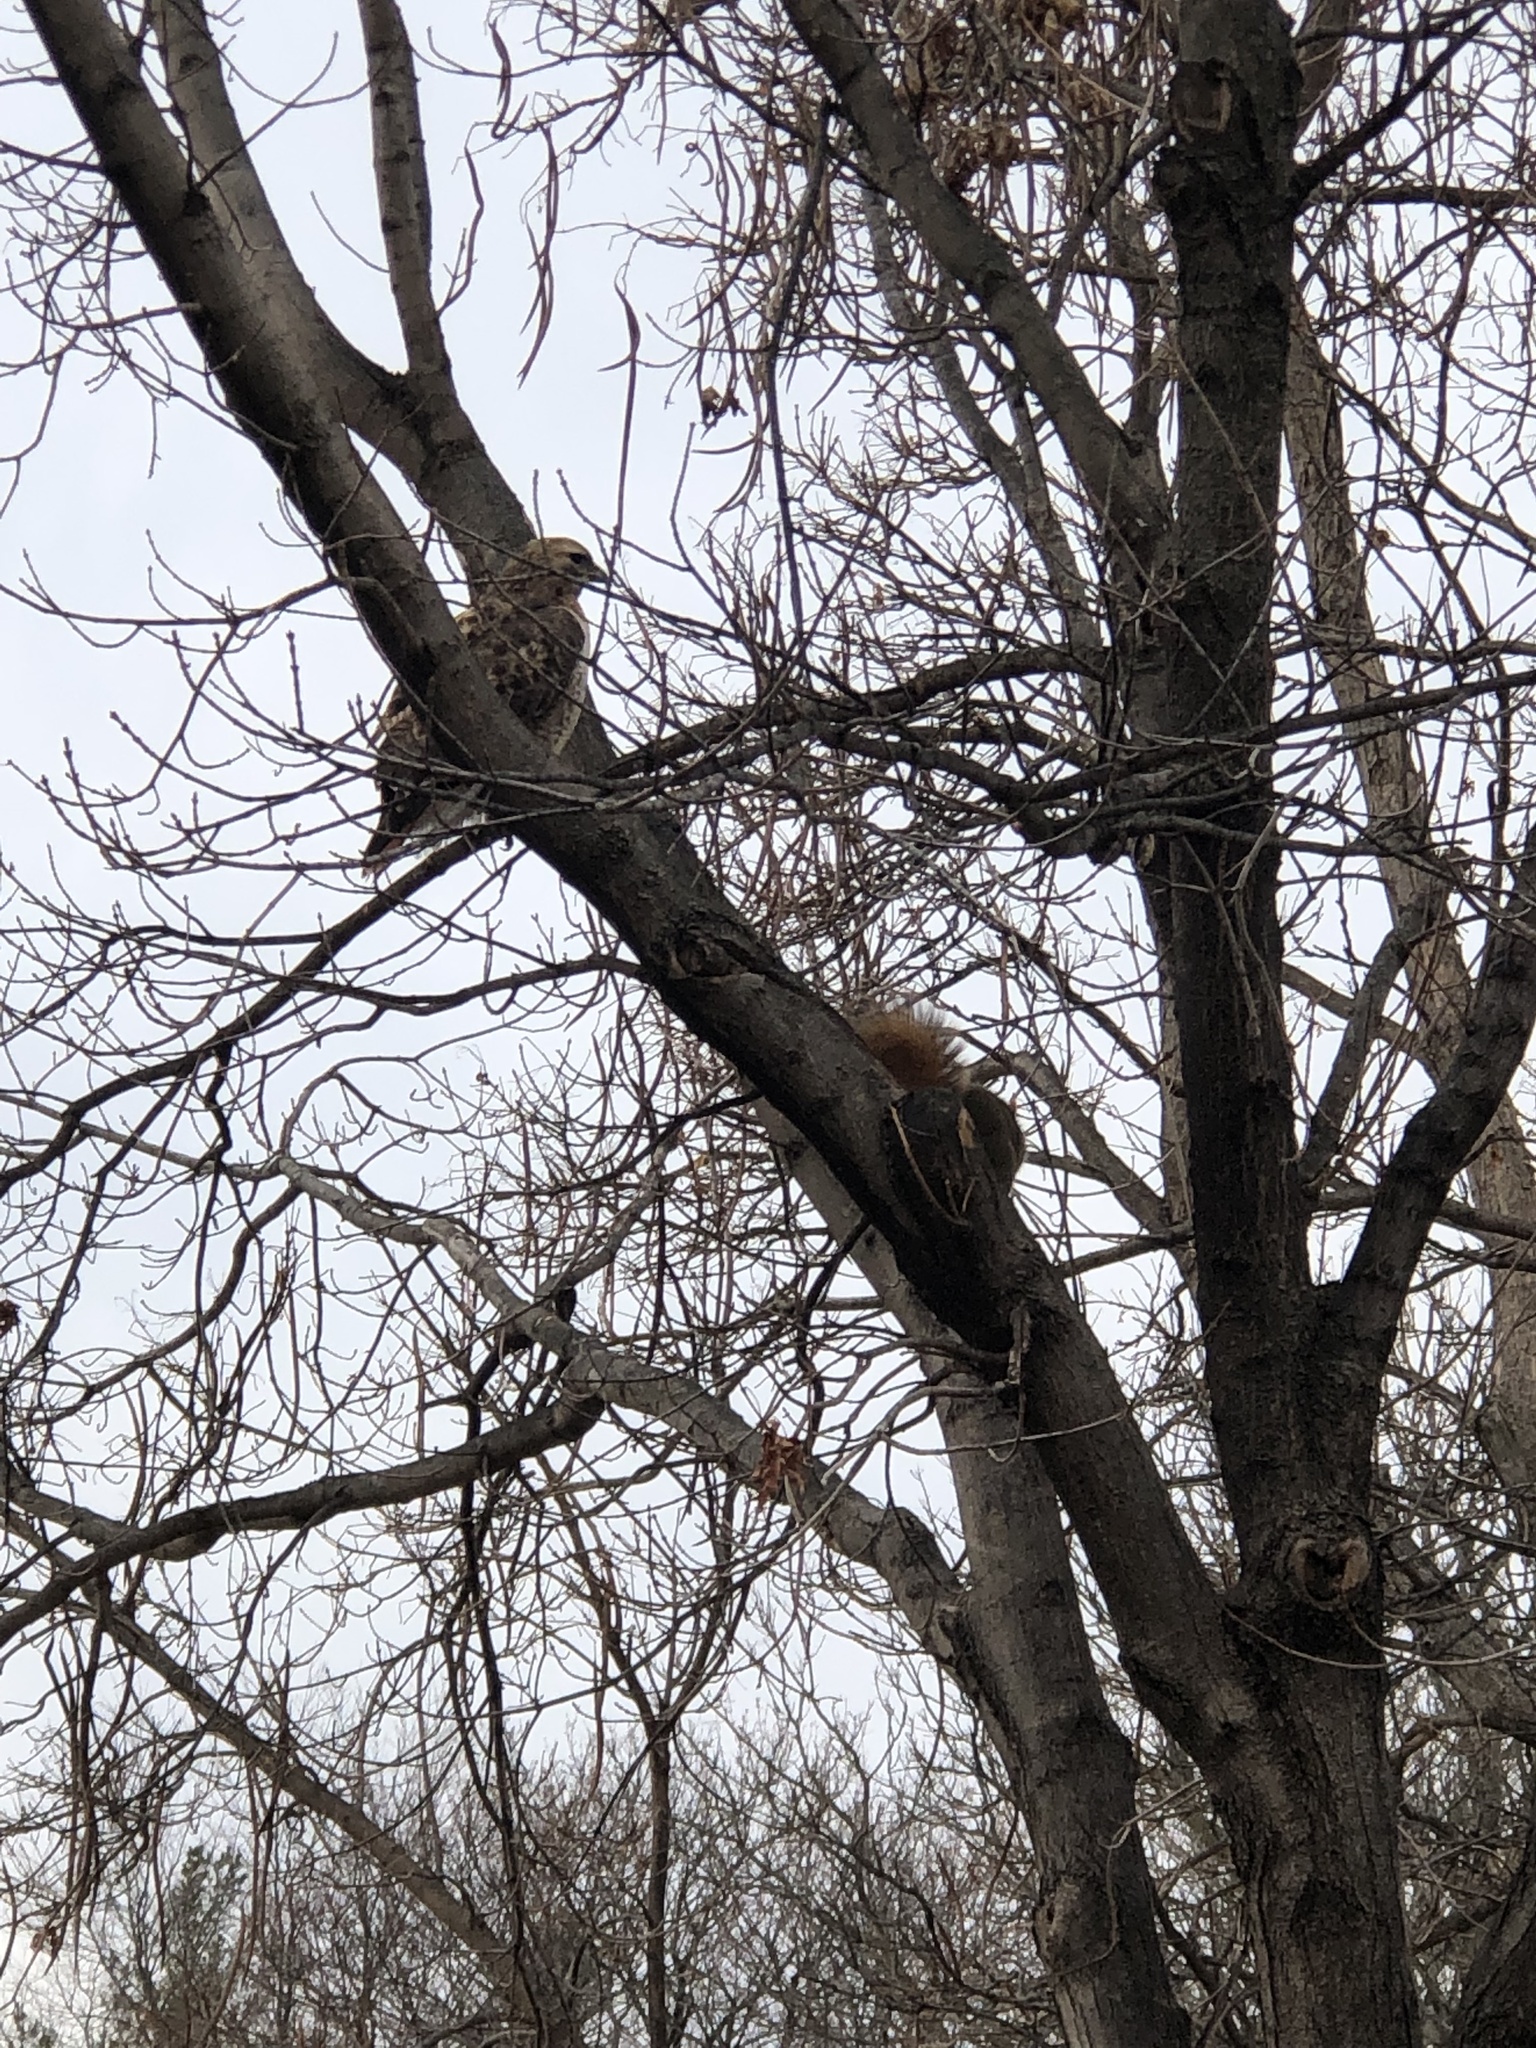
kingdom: Animalia
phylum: Chordata
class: Aves
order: Accipitriformes
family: Accipitridae
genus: Buteo
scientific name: Buteo jamaicensis
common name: Red-tailed hawk
